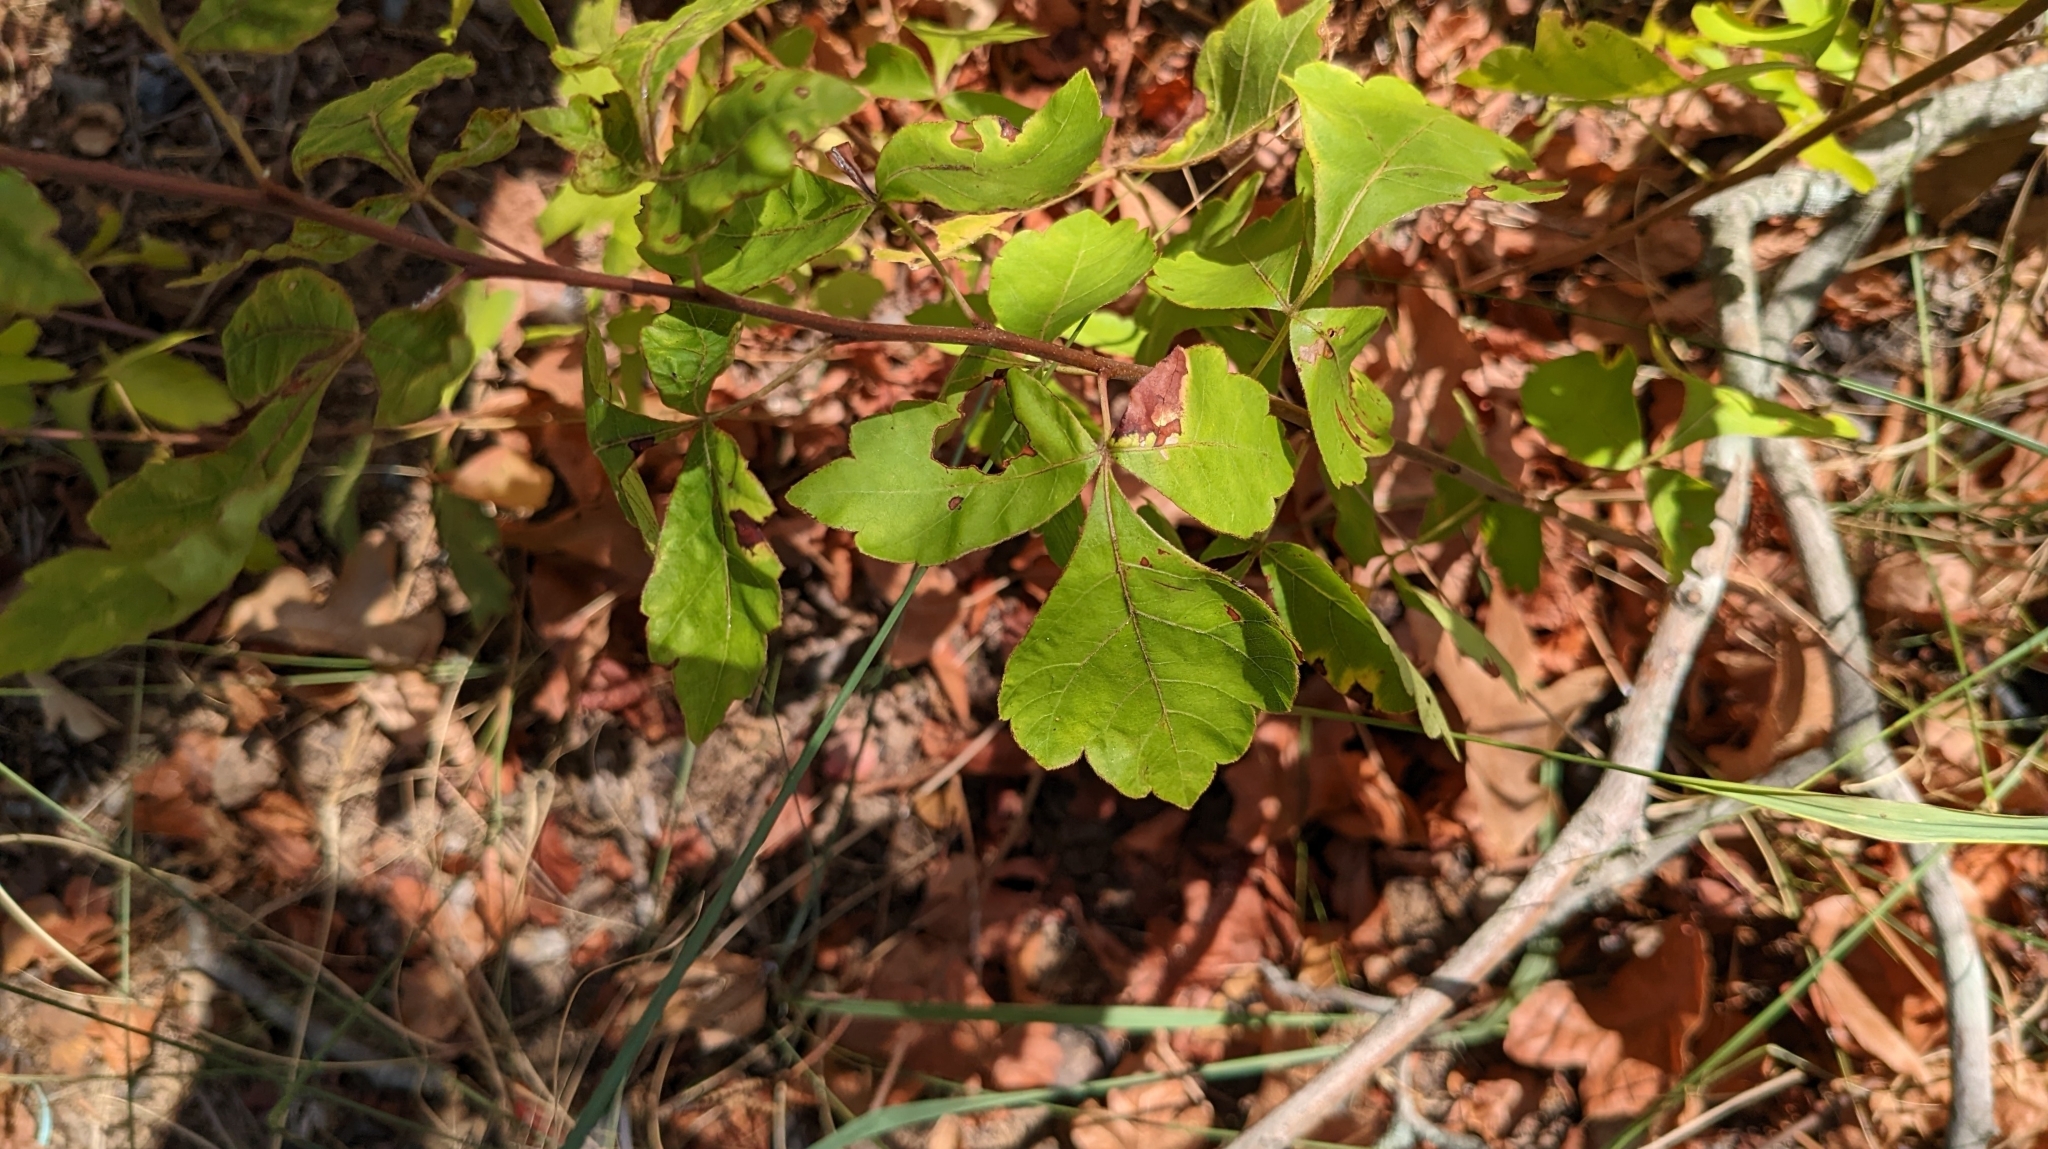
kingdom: Plantae
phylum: Tracheophyta
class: Magnoliopsida
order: Sapindales
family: Anacardiaceae
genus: Rhus
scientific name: Rhus aromatica
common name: Aromatic sumac
